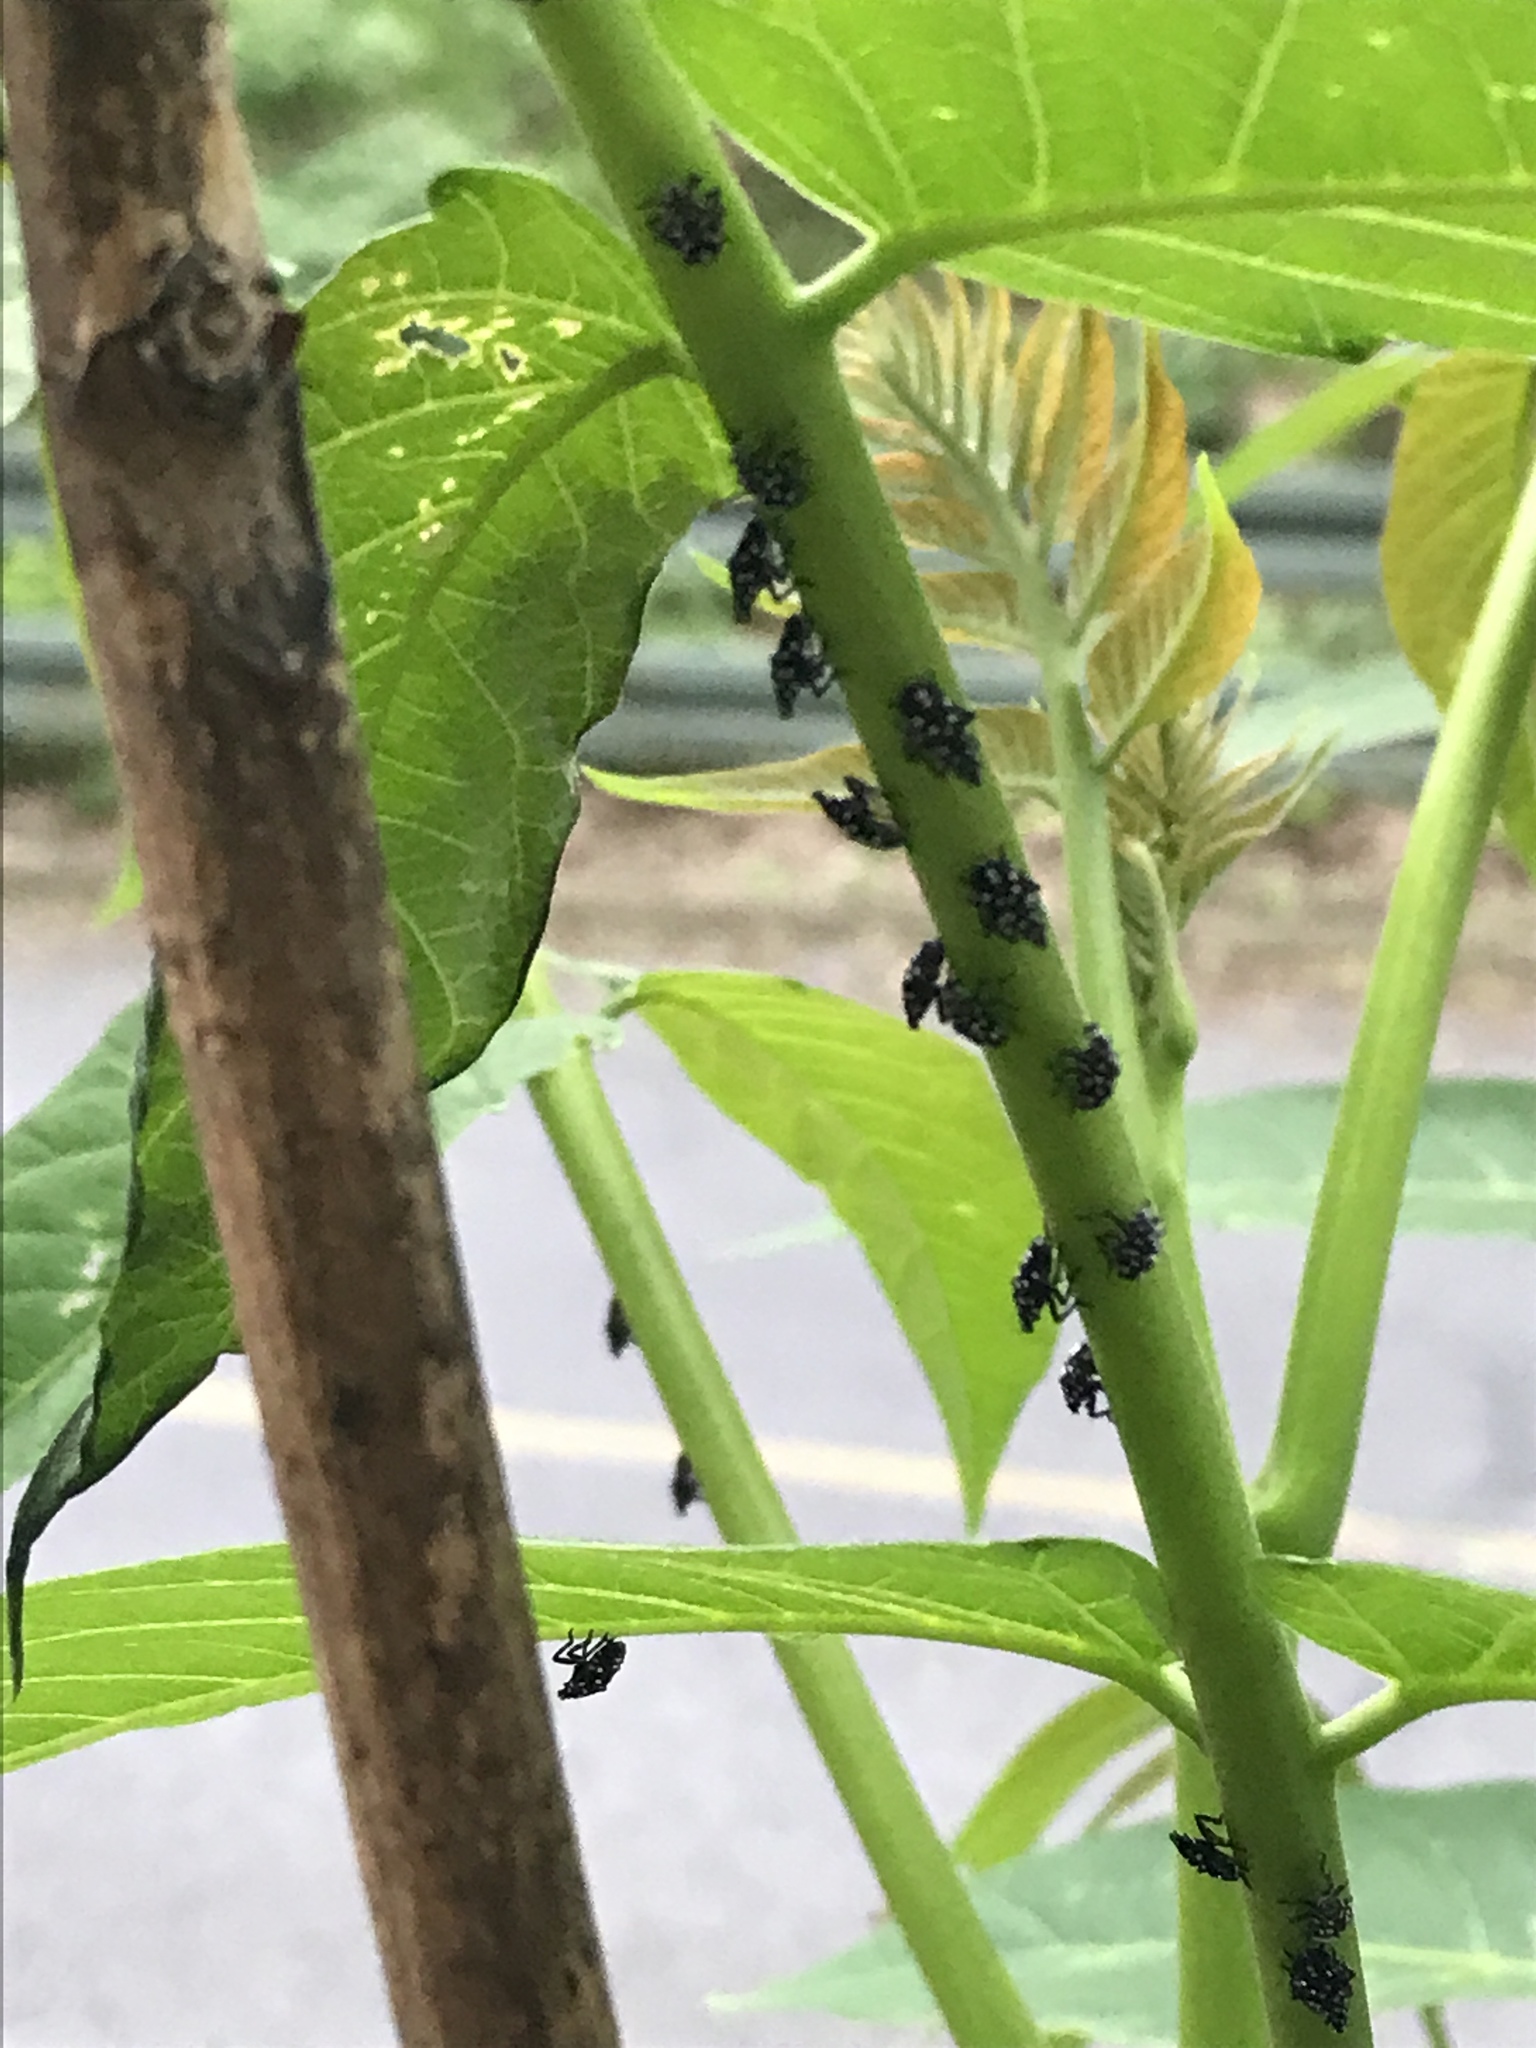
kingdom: Animalia
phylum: Arthropoda
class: Insecta
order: Hemiptera
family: Fulgoridae
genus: Lycorma
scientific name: Lycorma delicatula
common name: Spotted lanternfly
